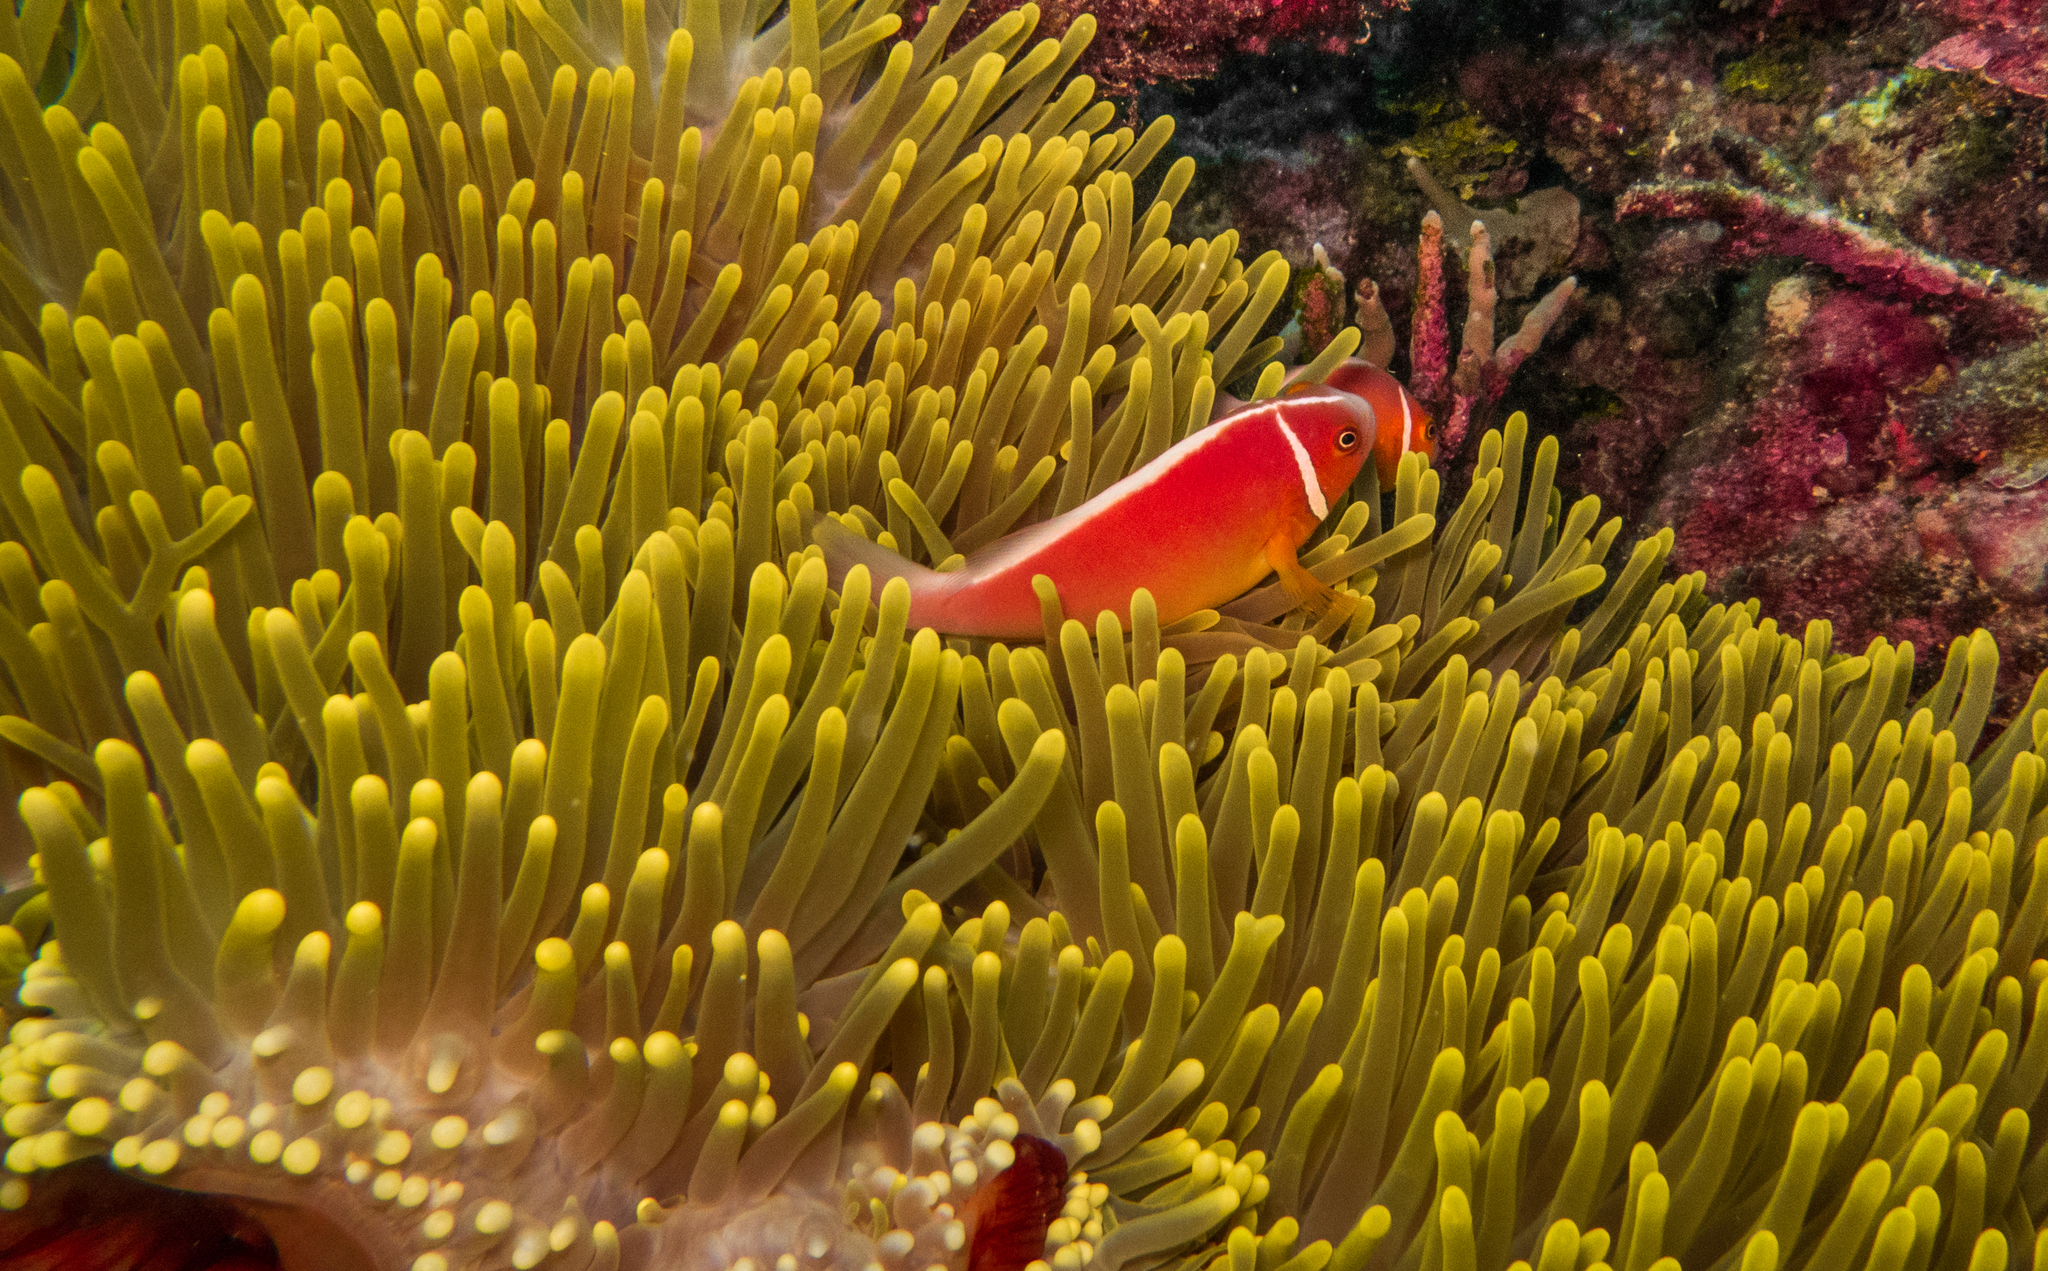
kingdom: Animalia
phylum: Chordata
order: Perciformes
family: Pomacentridae
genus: Amphiprion
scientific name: Amphiprion perideraion
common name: Pink anemonefish
